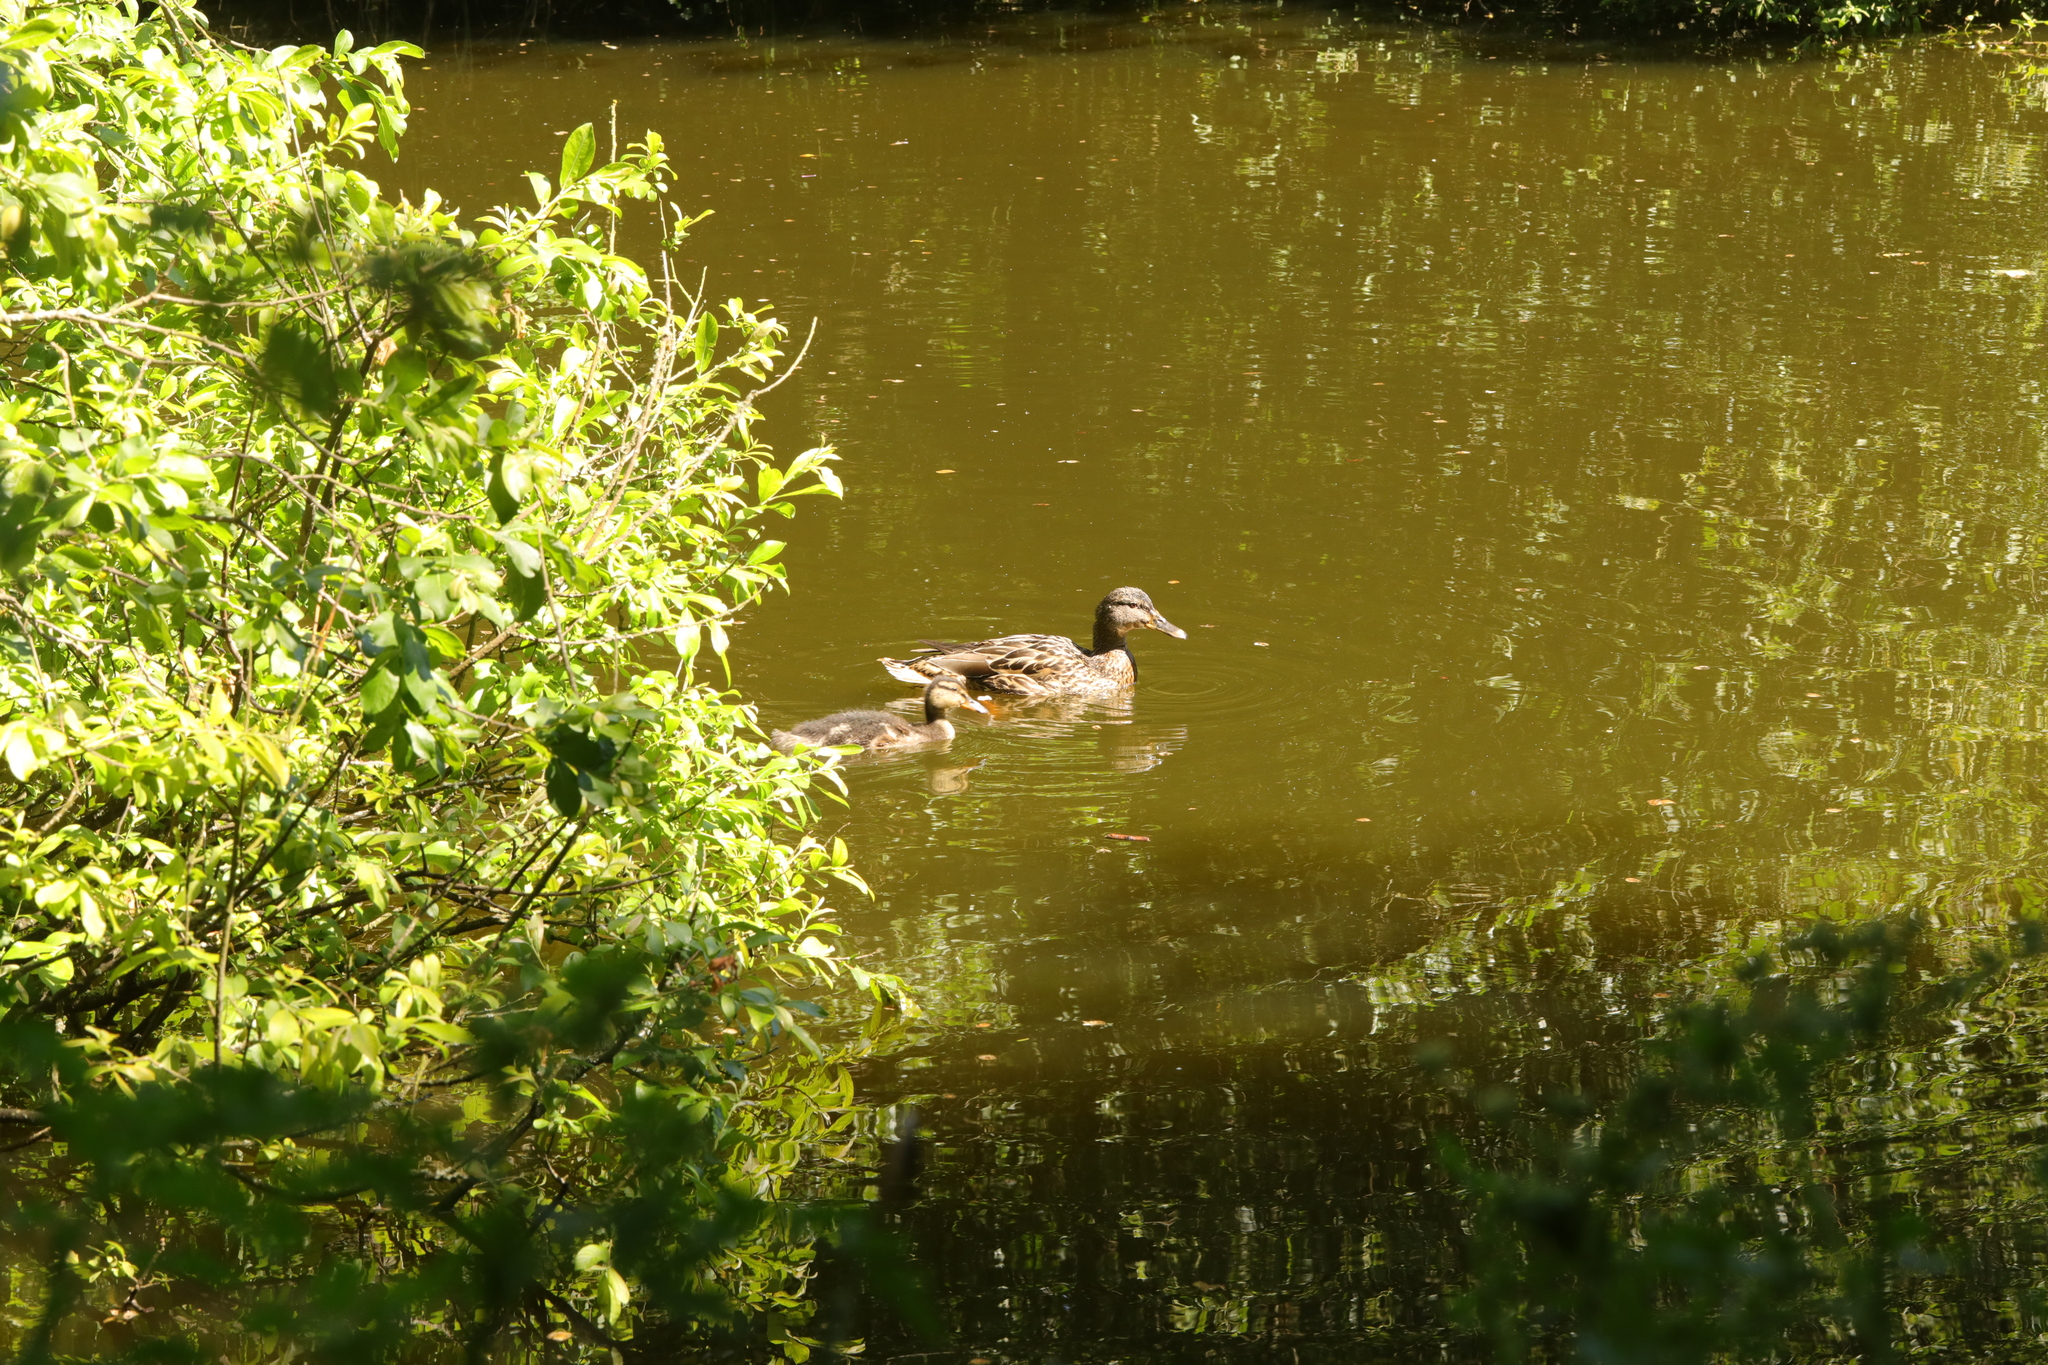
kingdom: Animalia
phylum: Chordata
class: Aves
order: Anseriformes
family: Anatidae
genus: Anas
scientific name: Anas platyrhynchos
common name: Mallard
